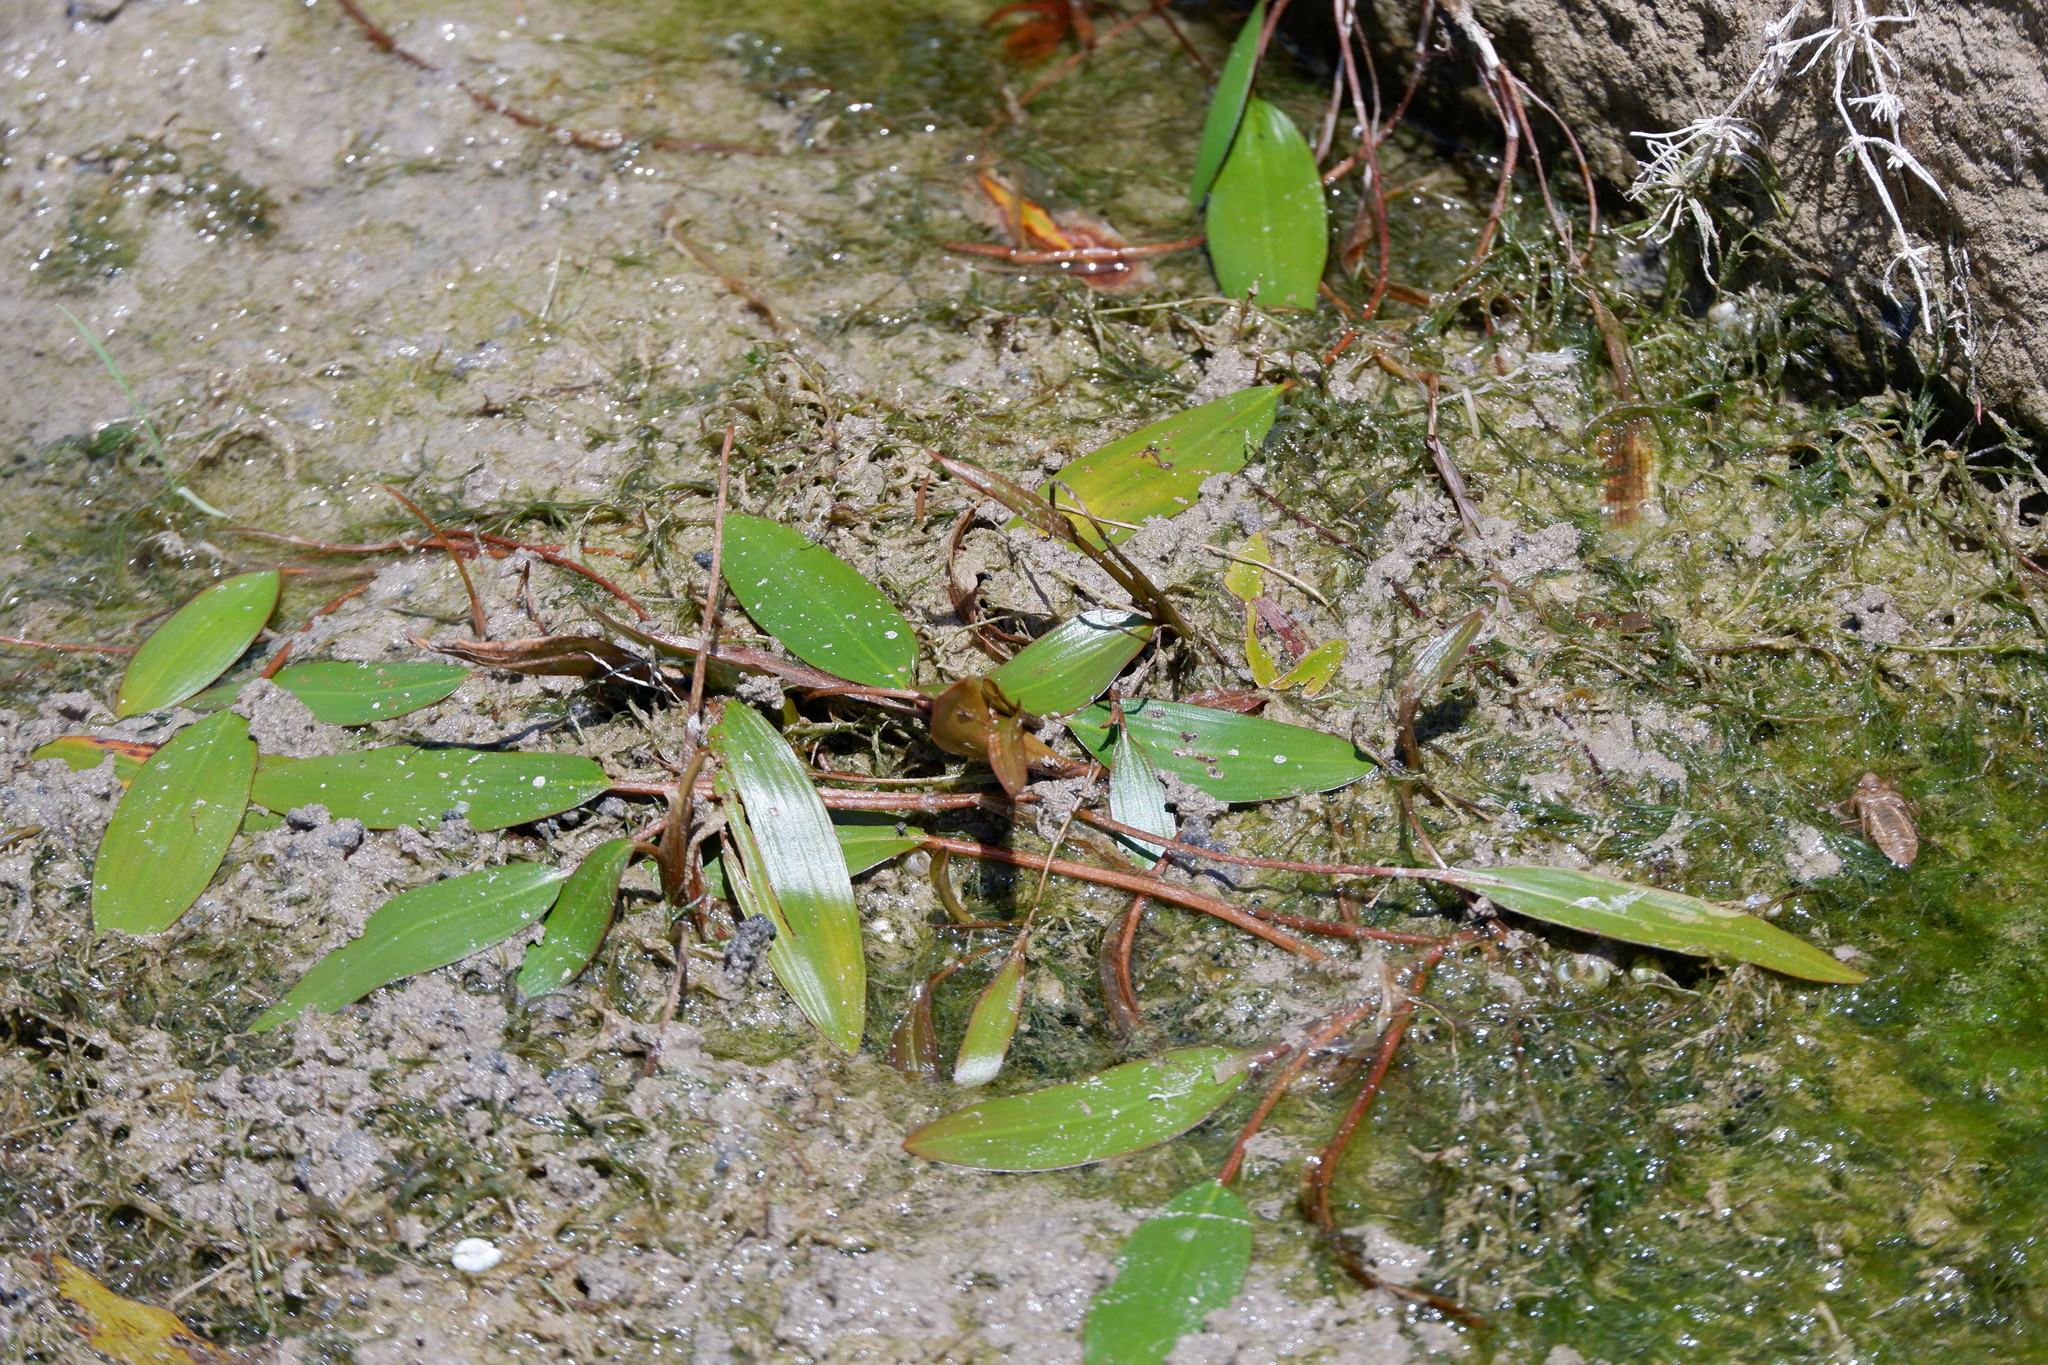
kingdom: Plantae
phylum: Tracheophyta
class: Liliopsida
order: Alismatales
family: Potamogetonaceae
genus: Potamogeton
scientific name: Potamogeton nodosus
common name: Loddon pondweed
